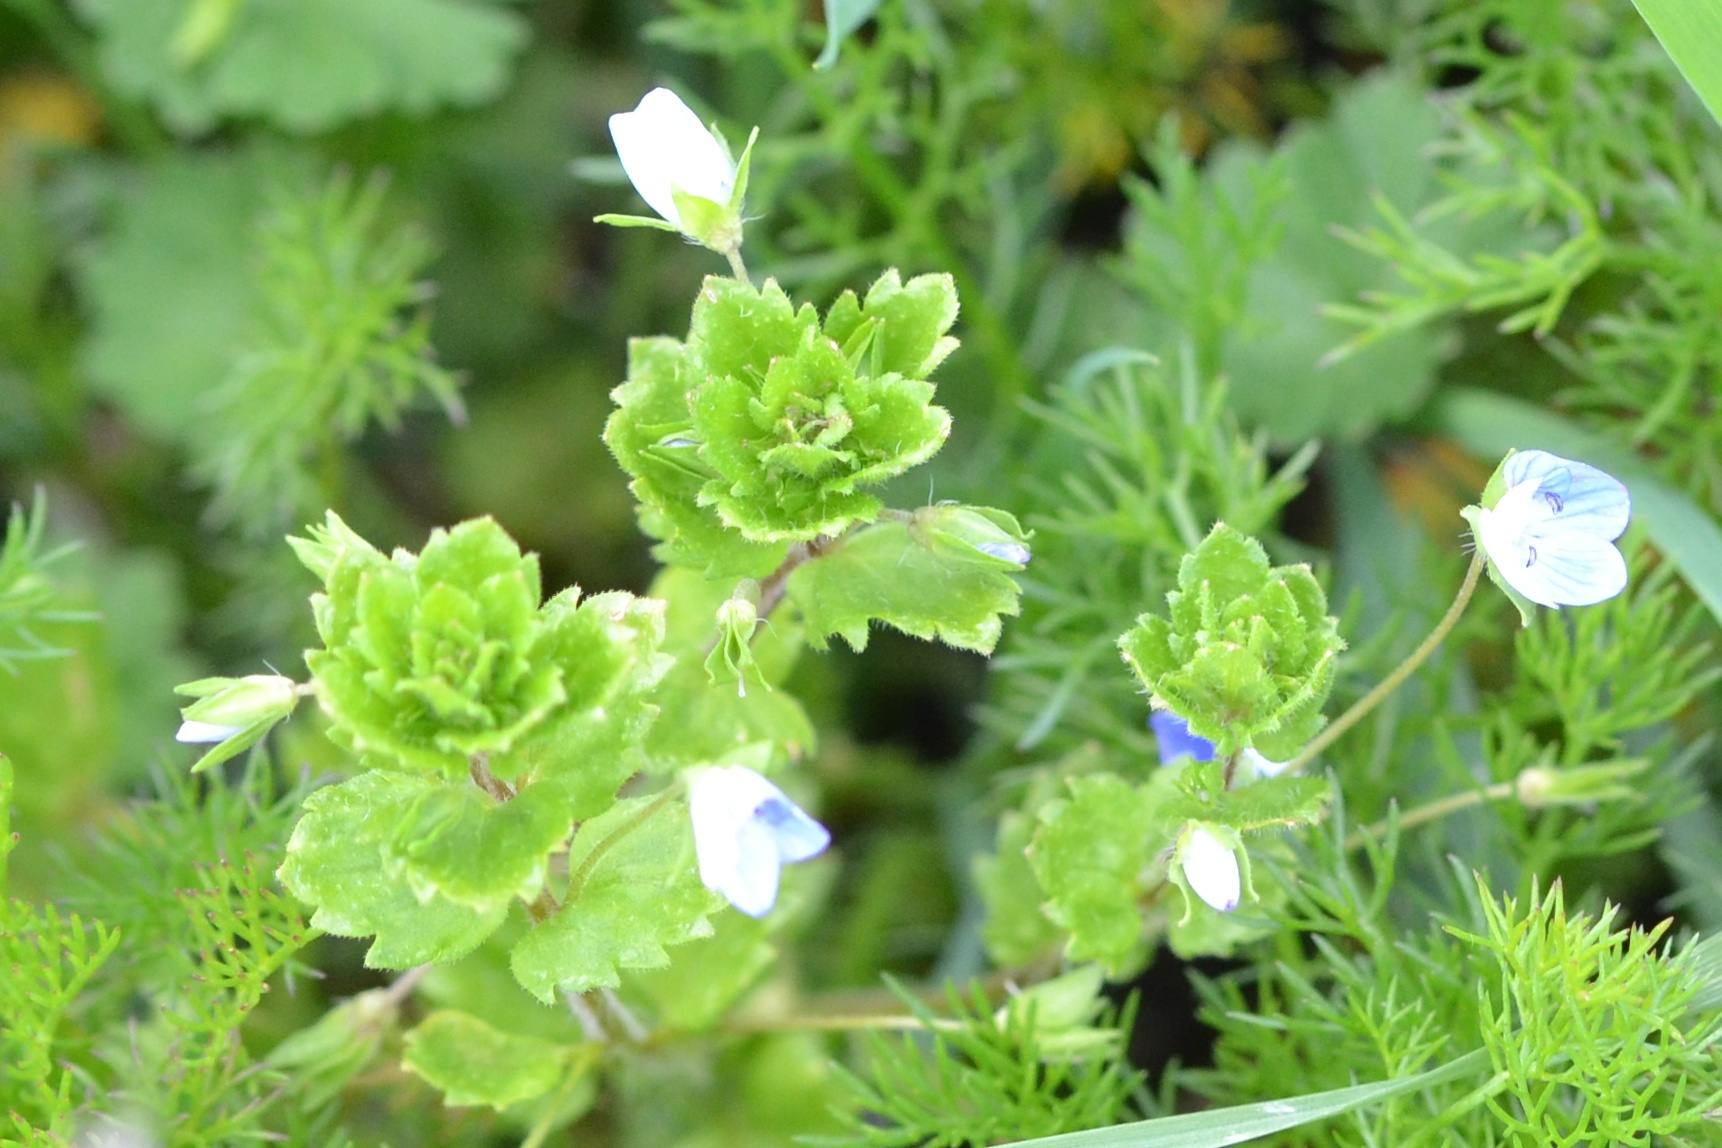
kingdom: Plantae
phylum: Tracheophyta
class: Magnoliopsida
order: Lamiales
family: Plantaginaceae
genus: Veronica
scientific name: Veronica persica
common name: Common field-speedwell
